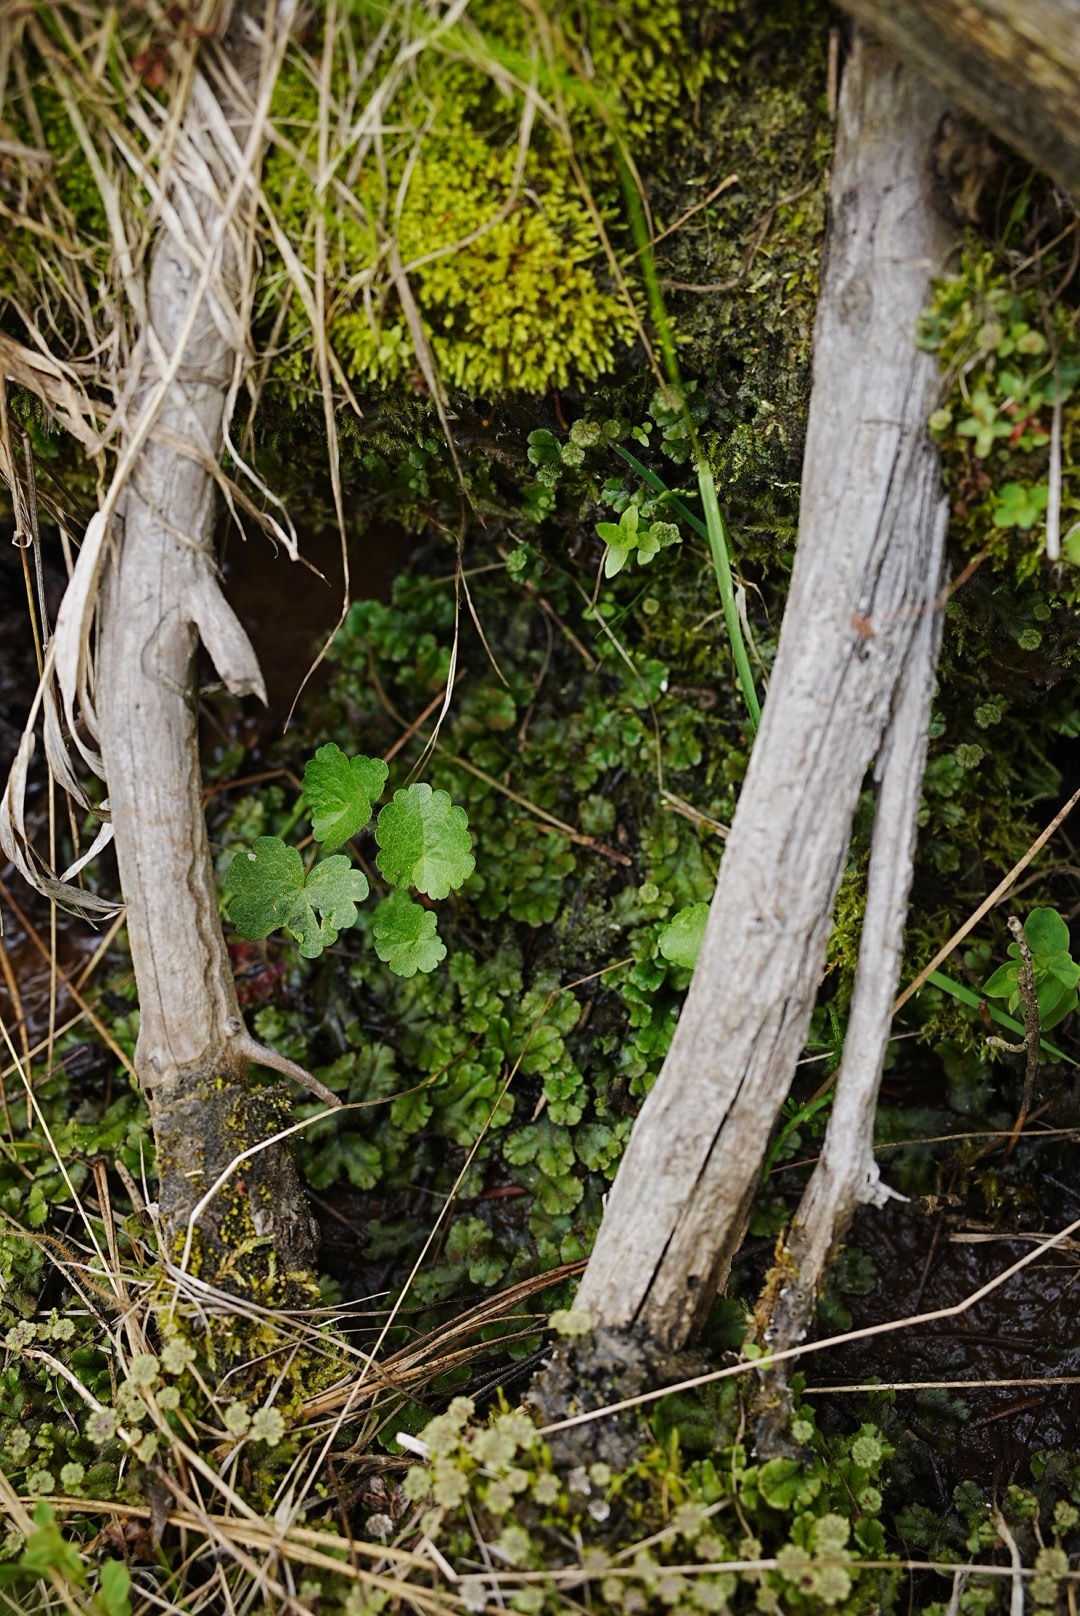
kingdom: Plantae
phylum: Marchantiophyta
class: Marchantiopsida
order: Marchantiales
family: Marchantiaceae
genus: Marchantia
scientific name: Marchantia polymorpha
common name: Common liverwort
